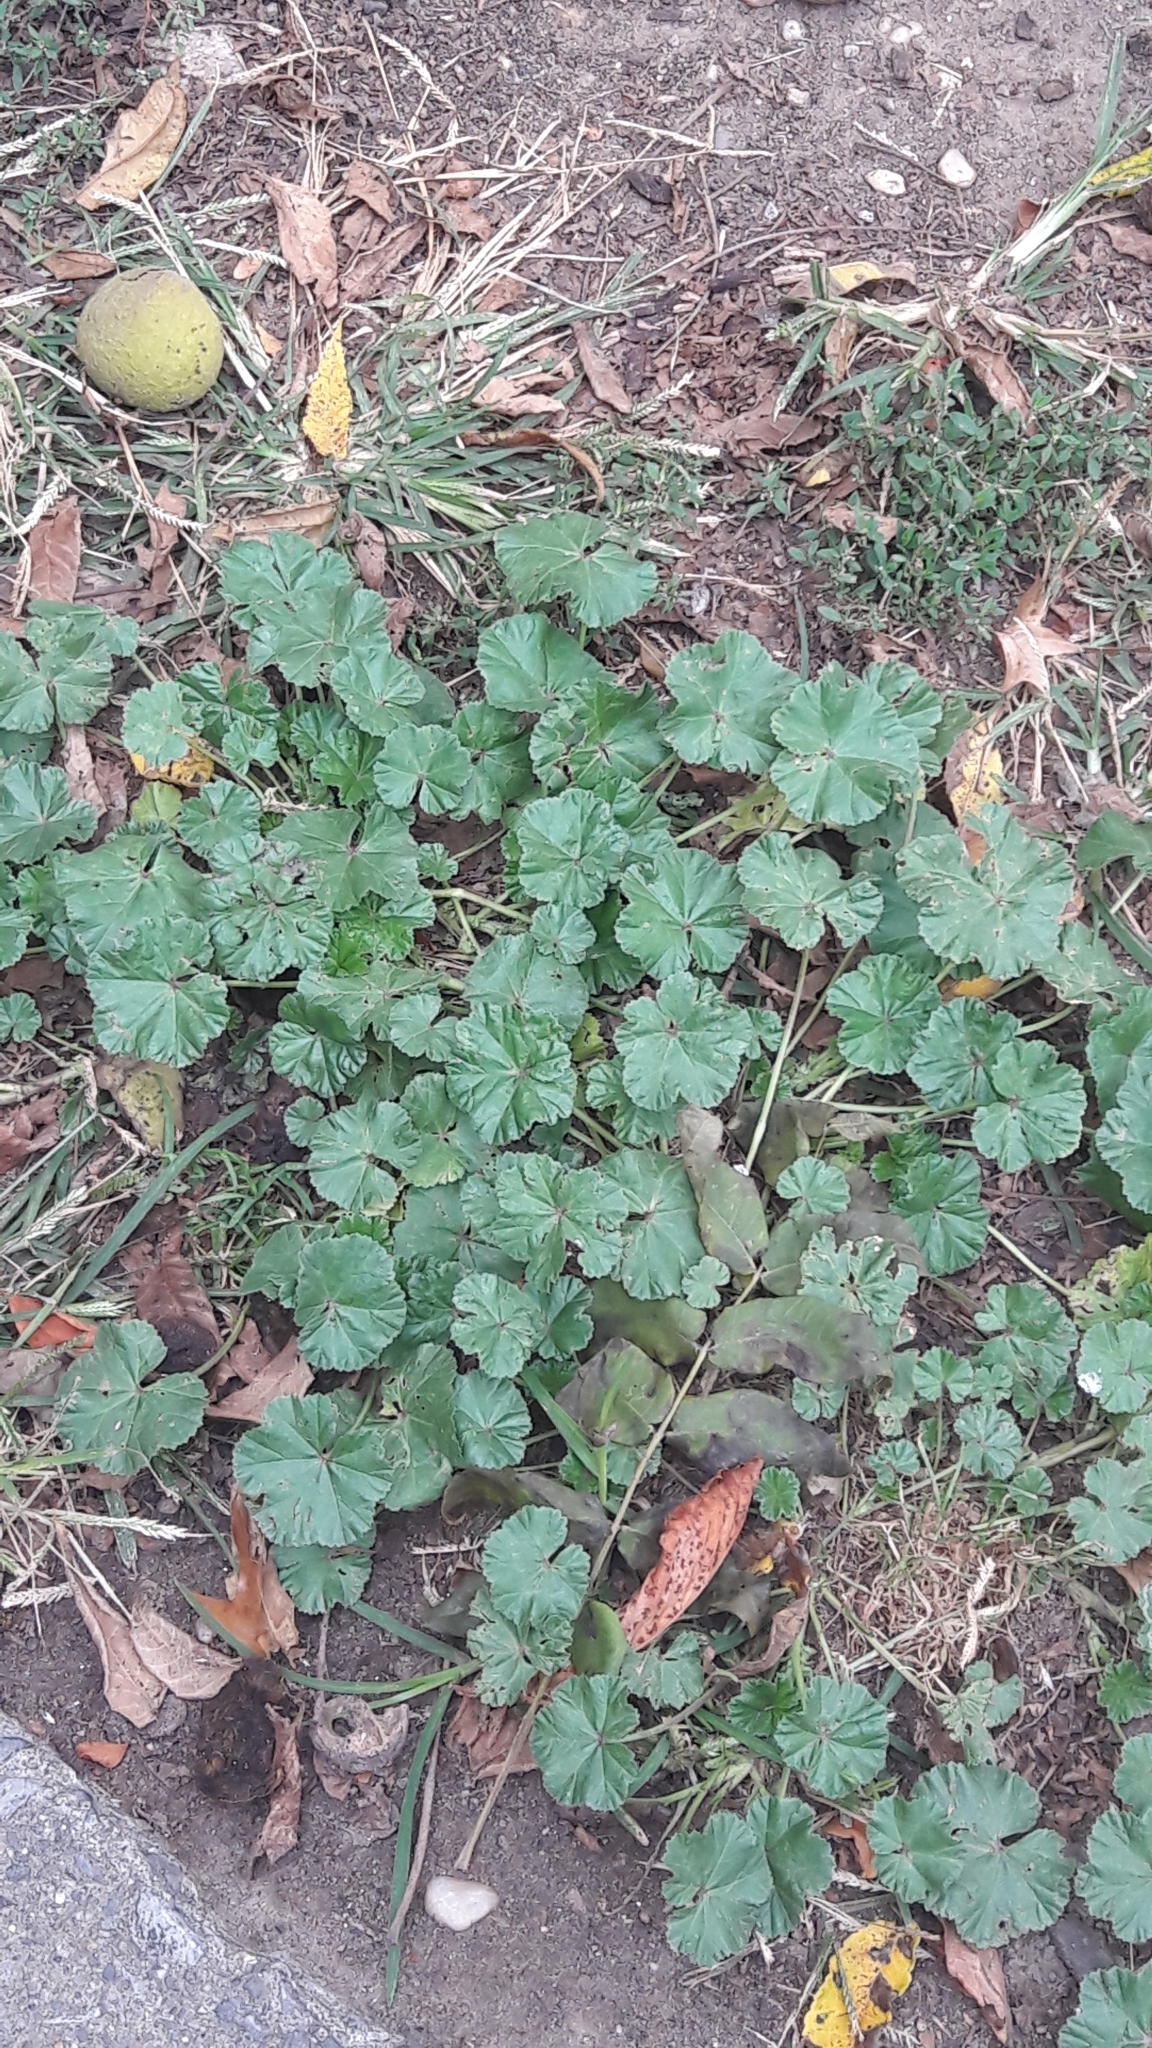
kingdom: Plantae
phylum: Tracheophyta
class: Magnoliopsida
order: Malvales
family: Malvaceae
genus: Malva
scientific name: Malva neglecta
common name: Common mallow
